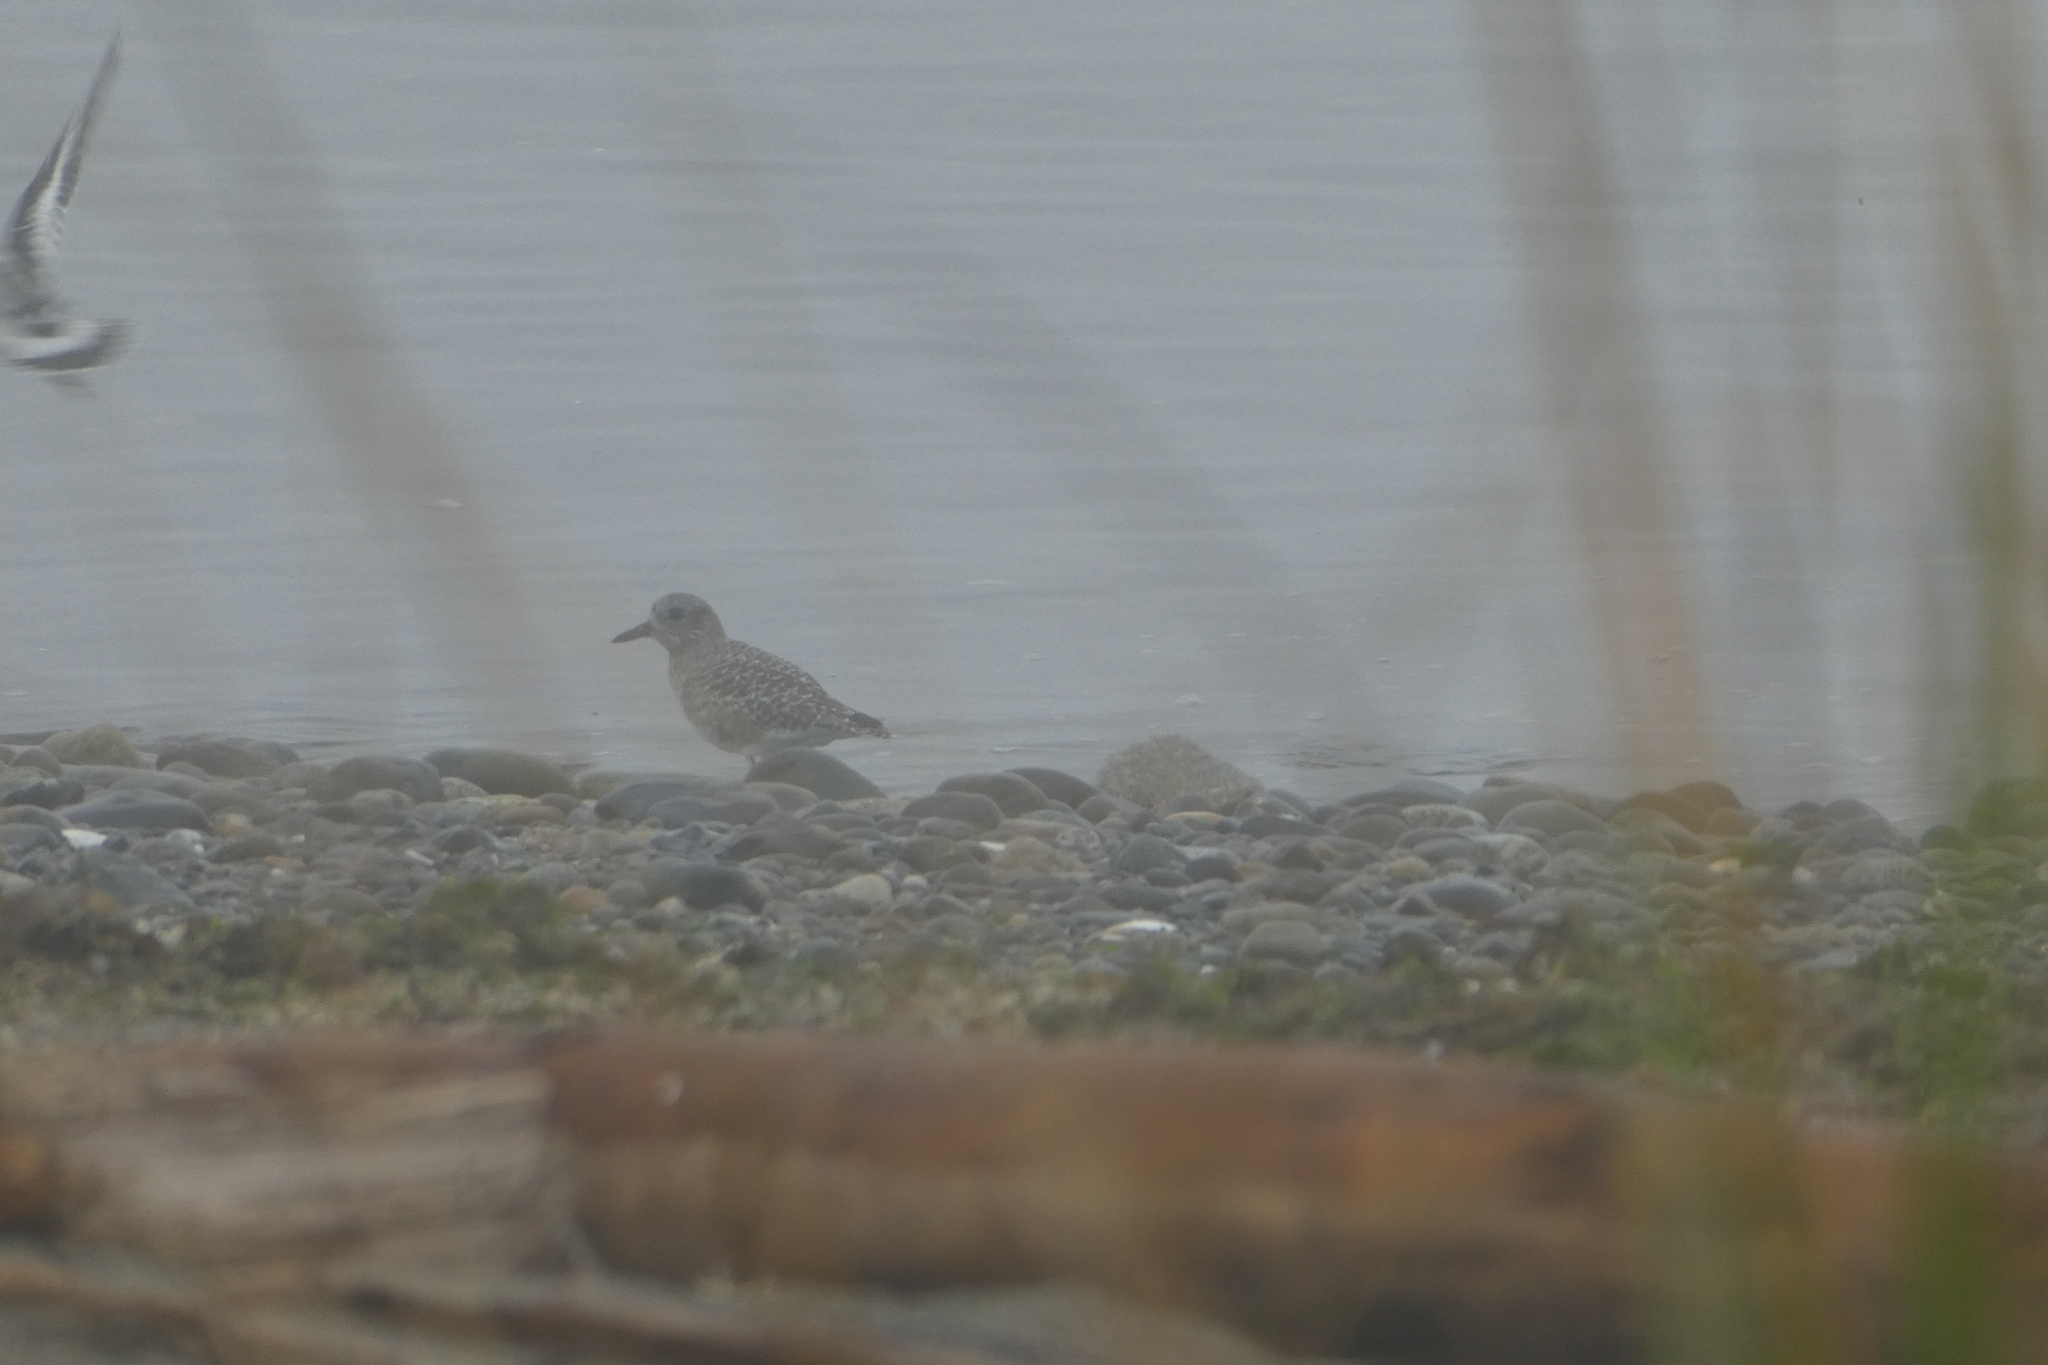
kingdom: Animalia
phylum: Chordata
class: Aves
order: Charadriiformes
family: Charadriidae
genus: Pluvialis
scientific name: Pluvialis squatarola
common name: Grey plover
